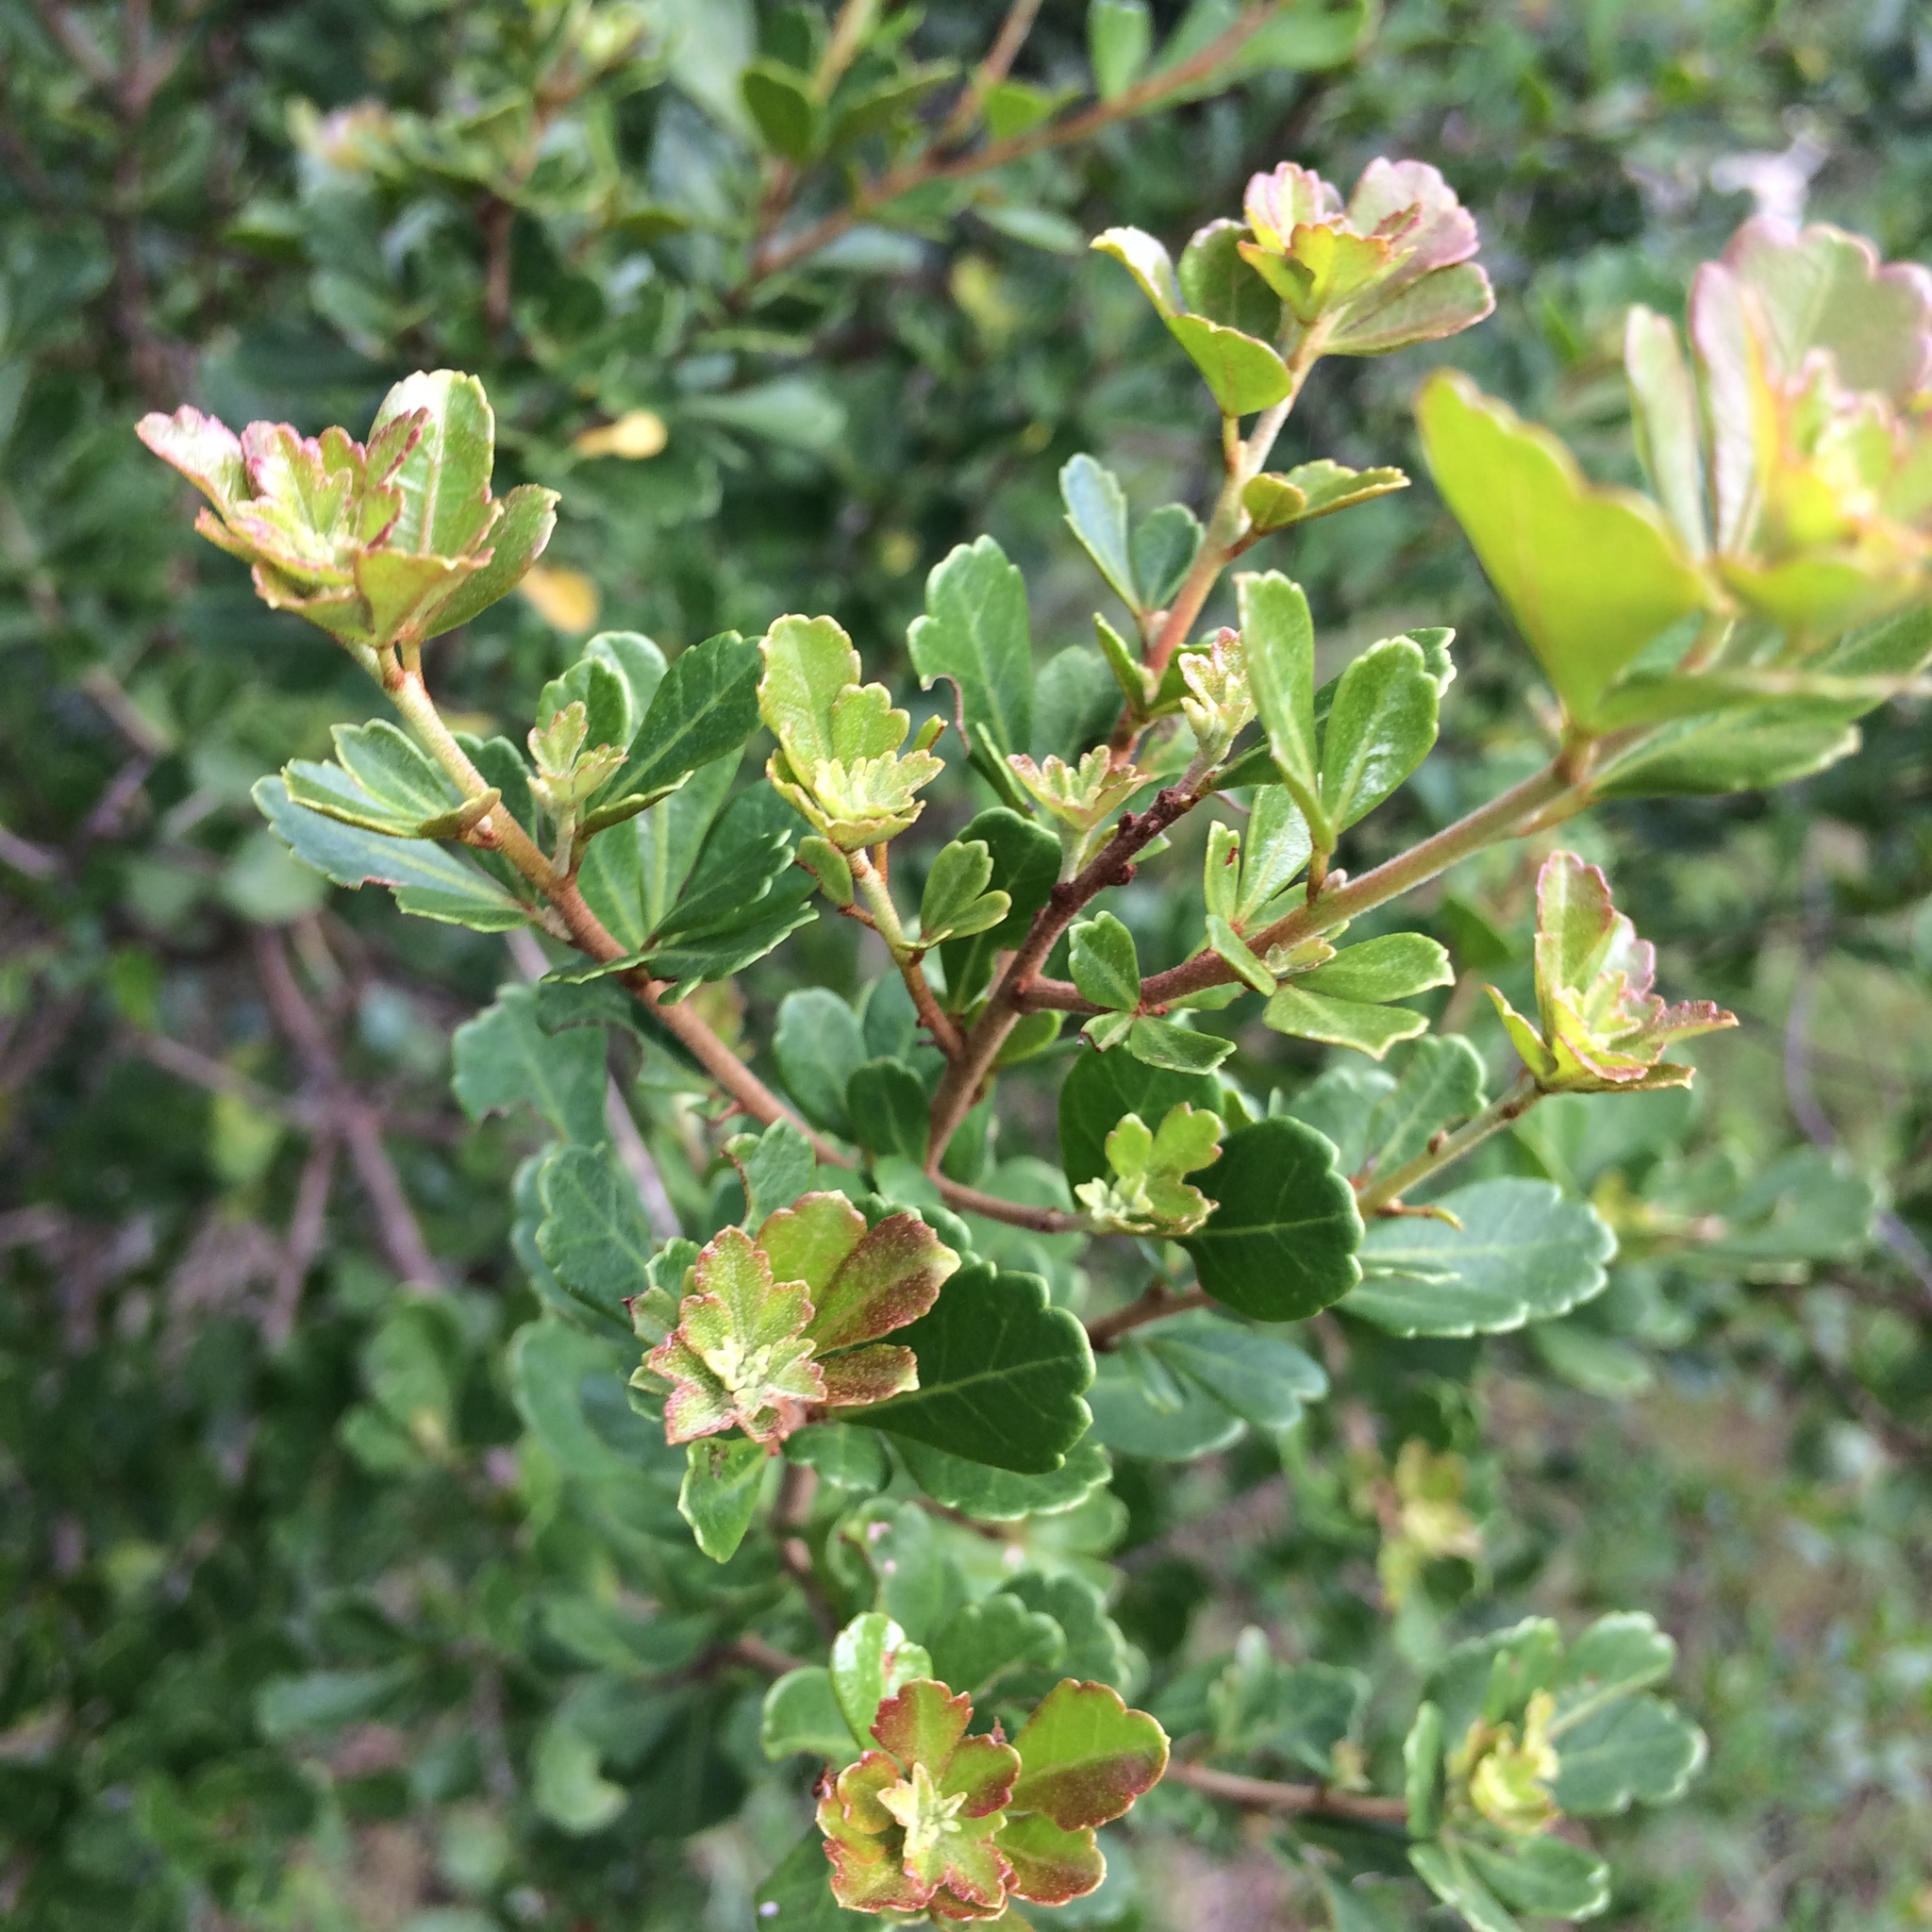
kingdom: Plantae
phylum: Tracheophyta
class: Magnoliopsida
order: Sapindales
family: Anacardiaceae
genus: Searsia
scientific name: Searsia crenata
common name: Crowberry
